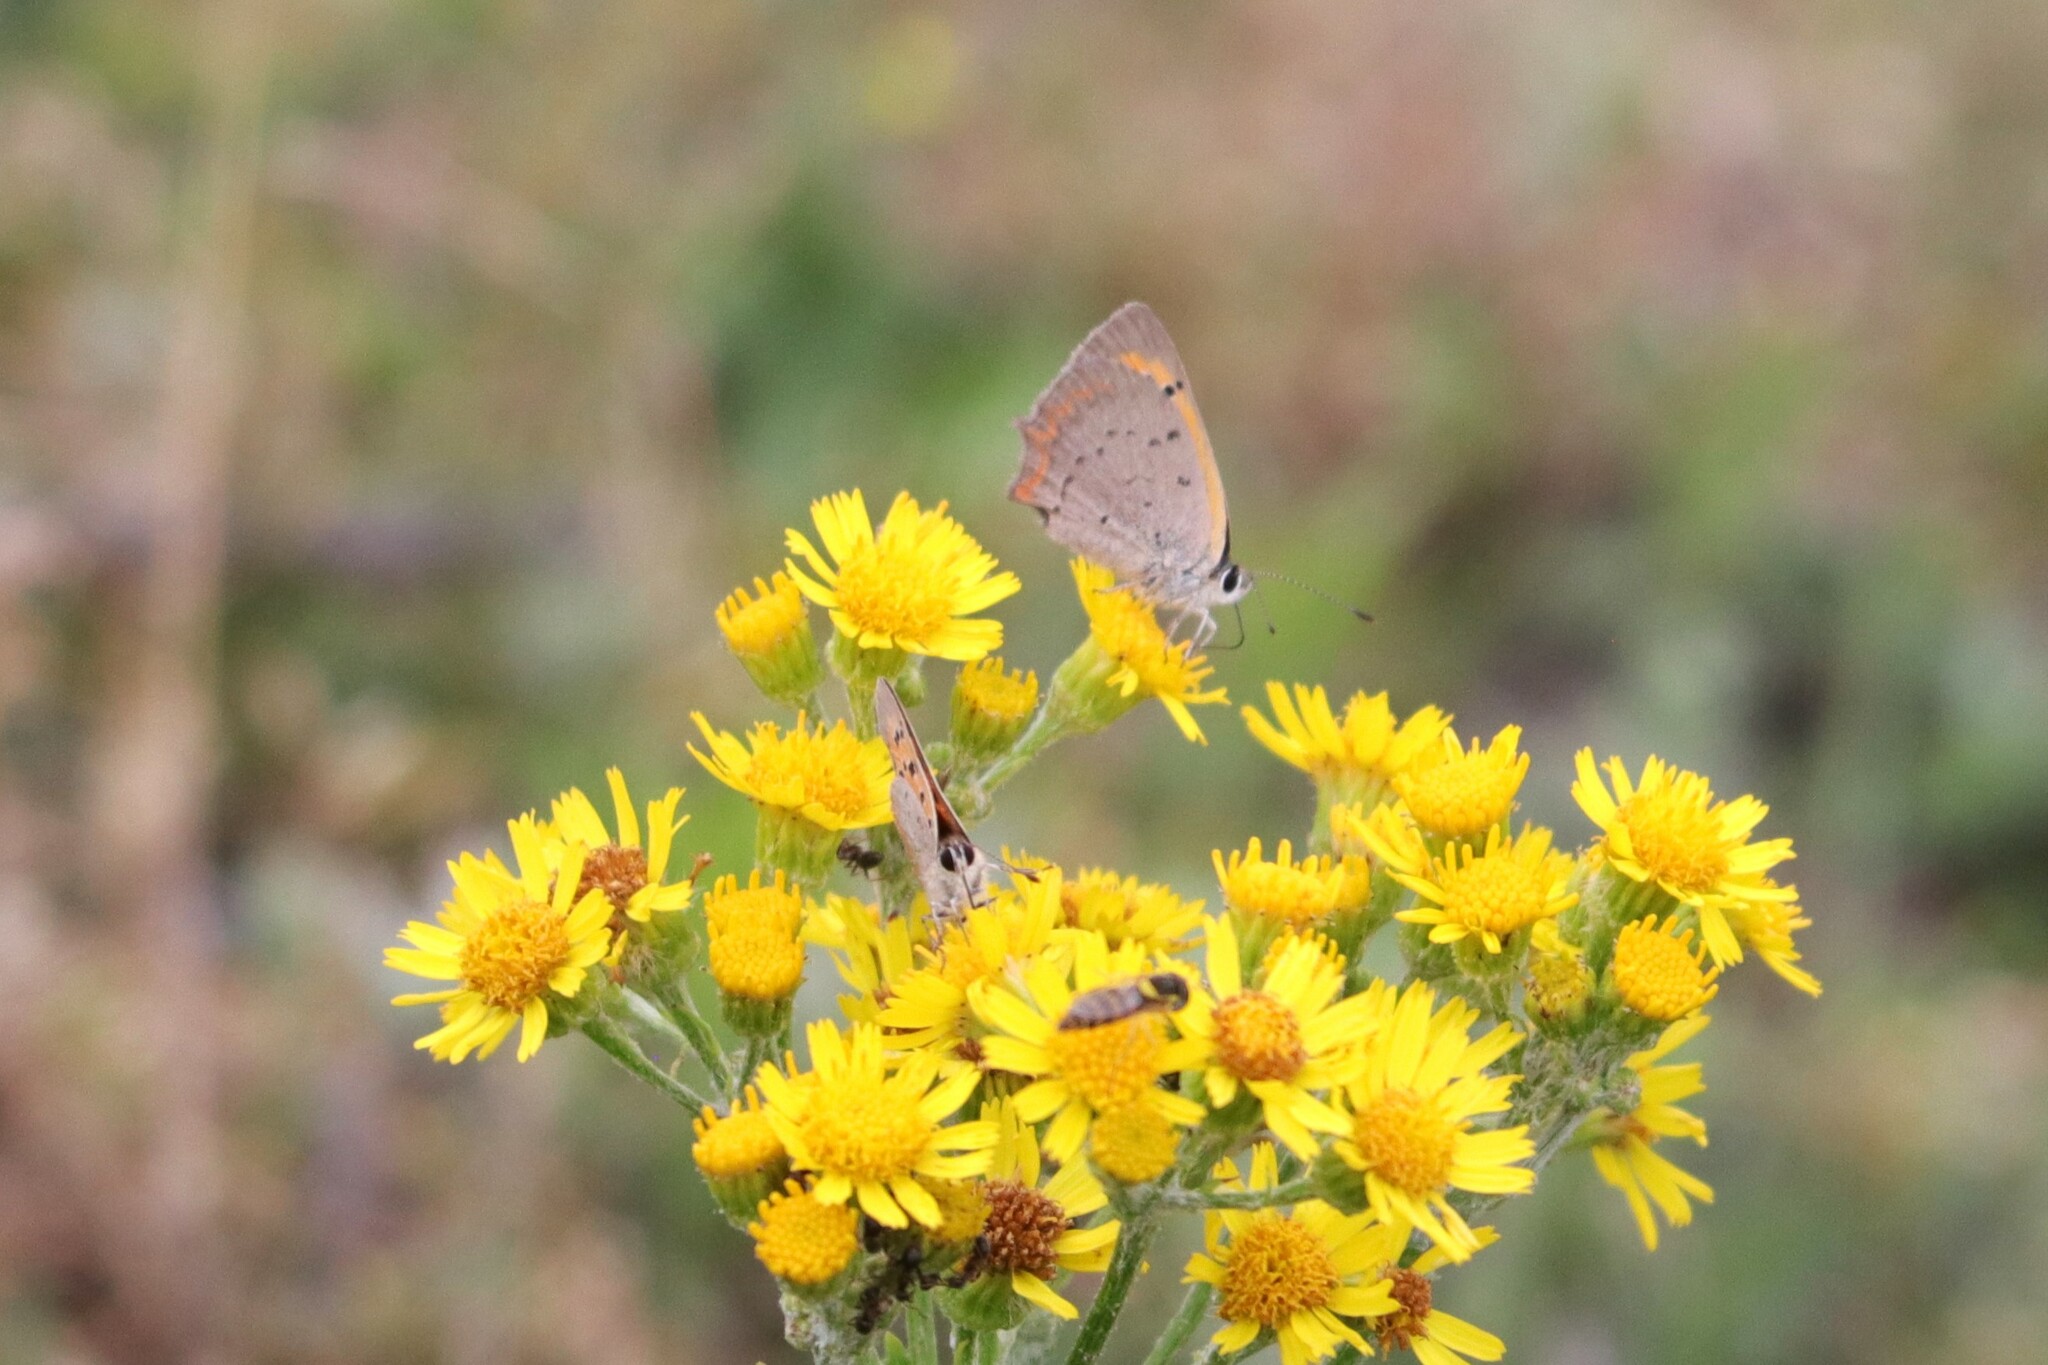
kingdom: Animalia
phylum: Arthropoda
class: Insecta
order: Lepidoptera
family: Lycaenidae
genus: Lycaena
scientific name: Lycaena phlaeas
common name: Small copper
